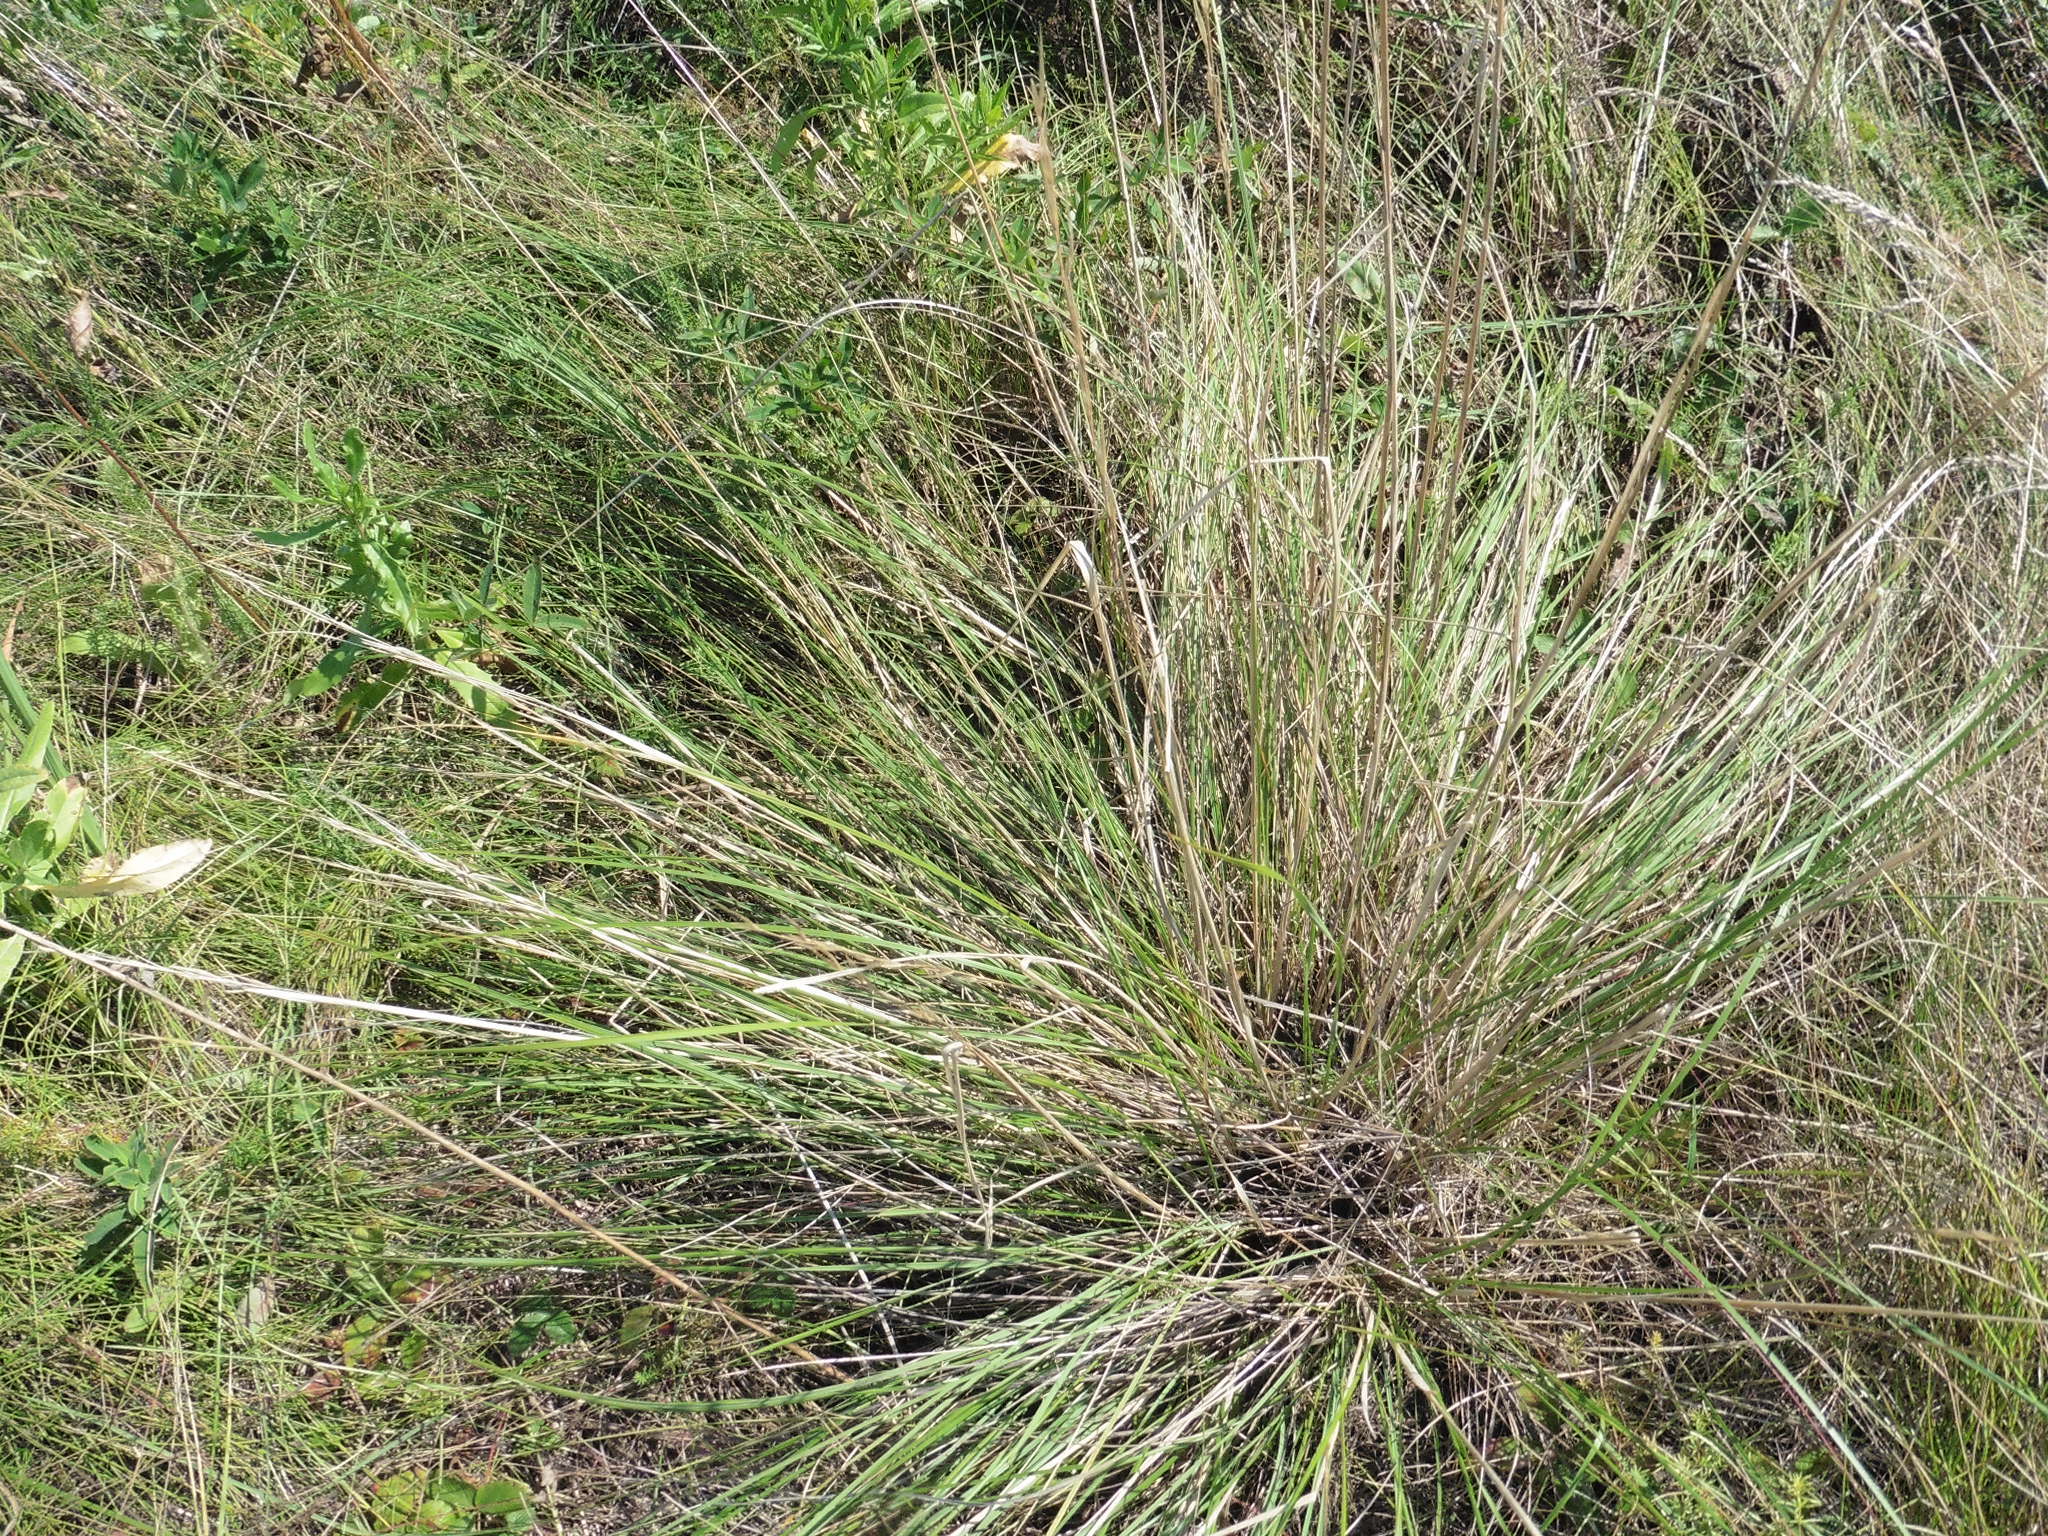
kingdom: Plantae
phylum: Tracheophyta
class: Liliopsida
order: Poales
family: Poaceae
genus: Stipa
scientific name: Stipa pennata
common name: European feather grass
